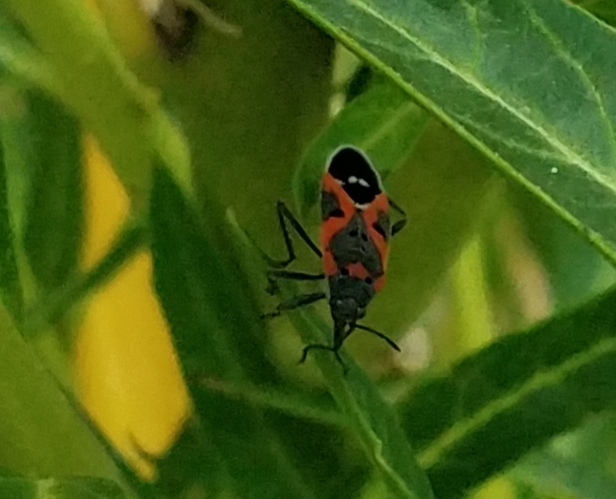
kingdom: Animalia
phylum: Arthropoda
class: Insecta
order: Hemiptera
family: Lygaeidae
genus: Lygaeus
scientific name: Lygaeus kalmii
